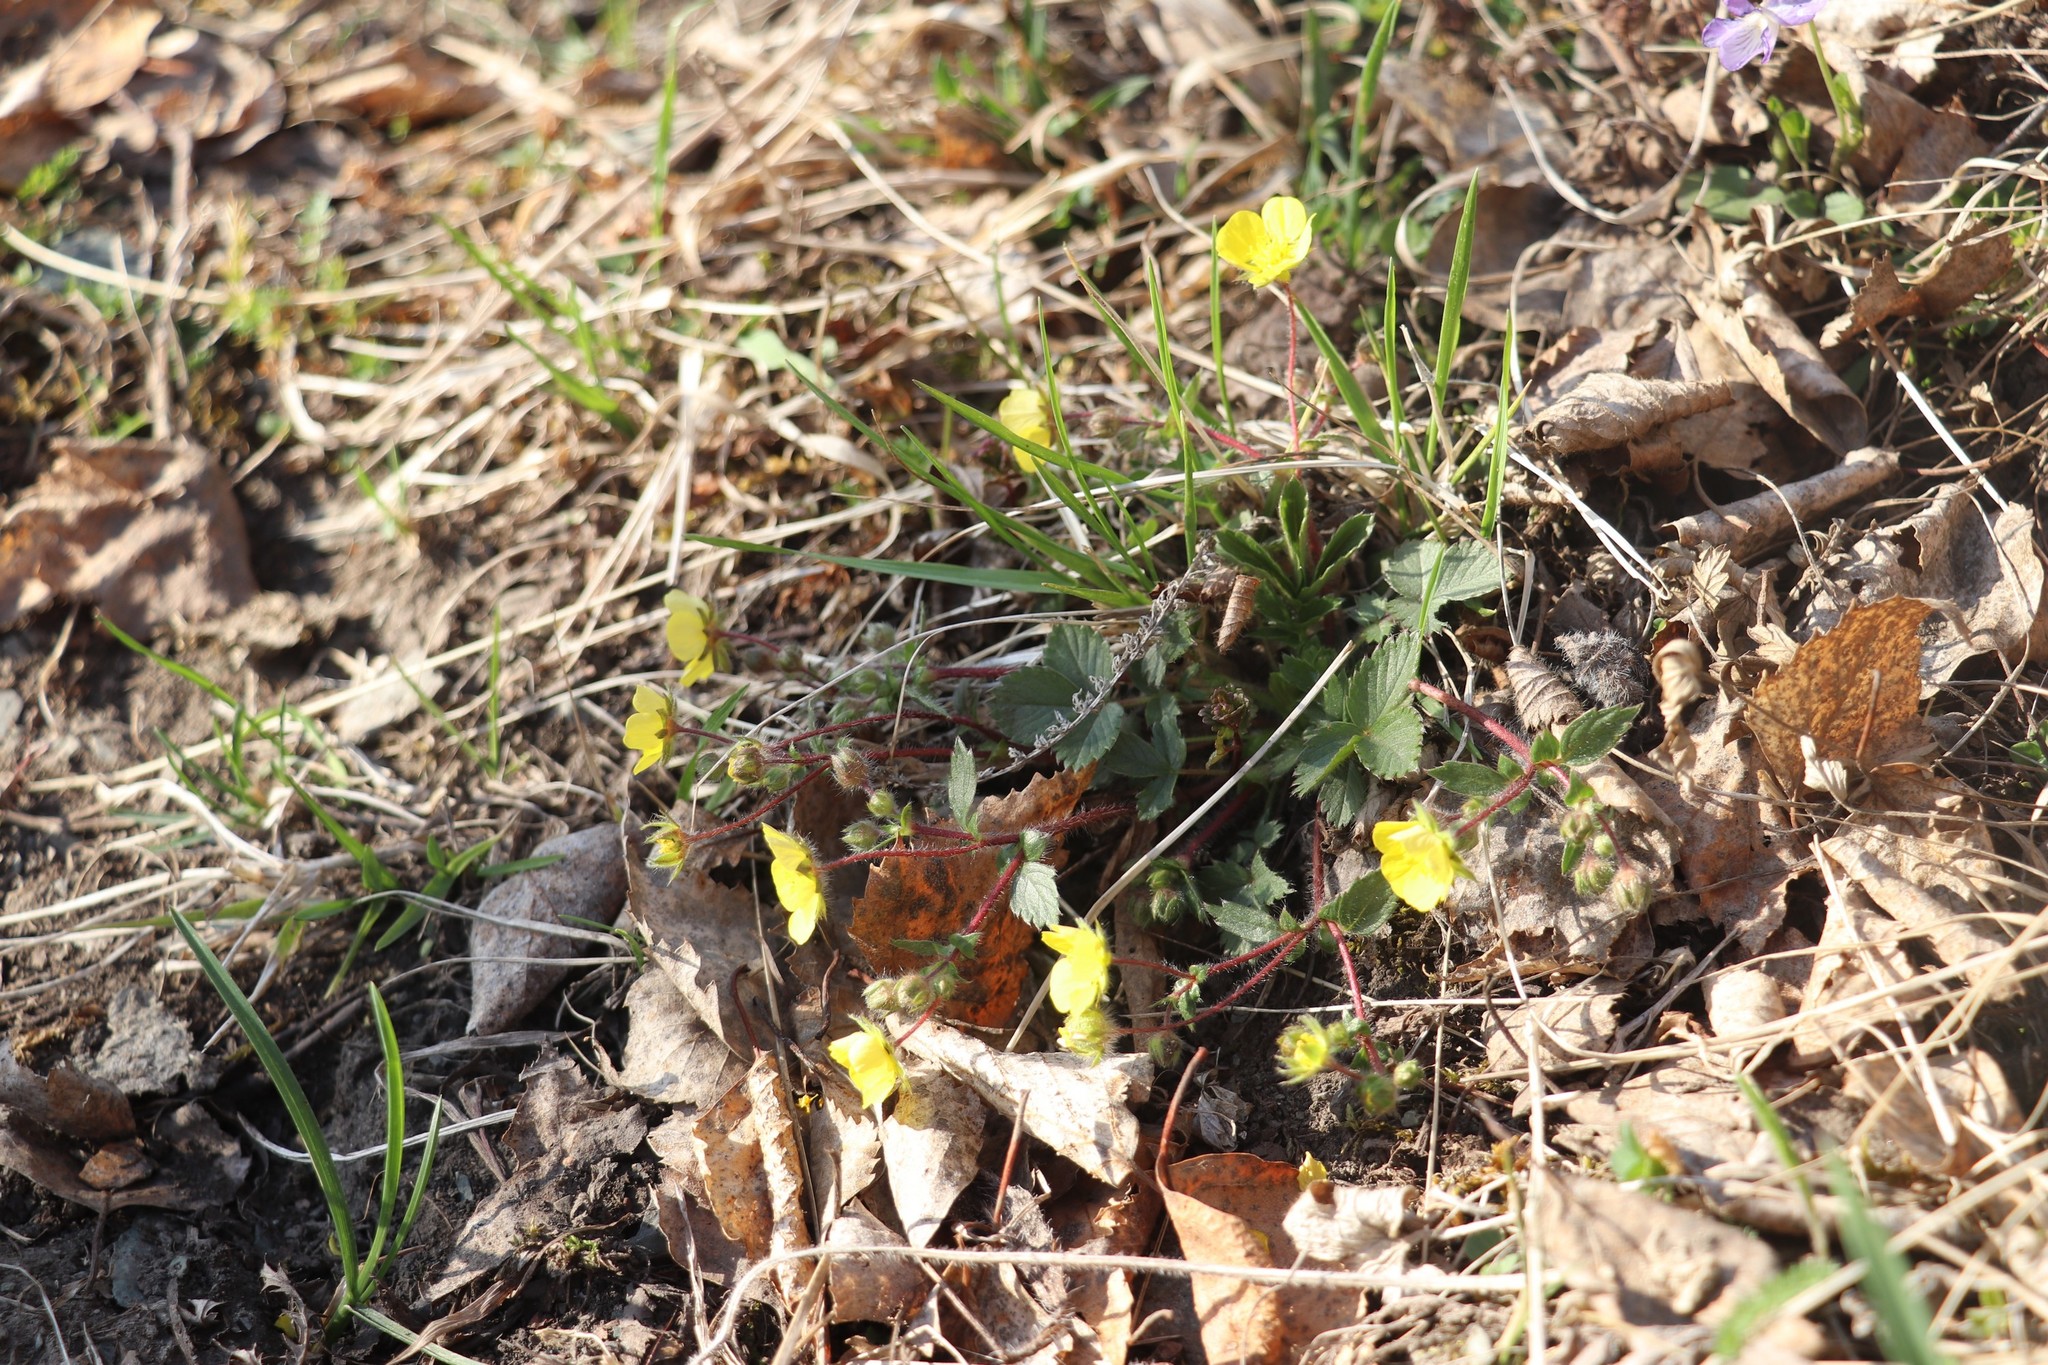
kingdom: Plantae
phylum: Tracheophyta
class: Magnoliopsida
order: Rosales
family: Rosaceae
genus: Potentilla
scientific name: Potentilla fragarioides
